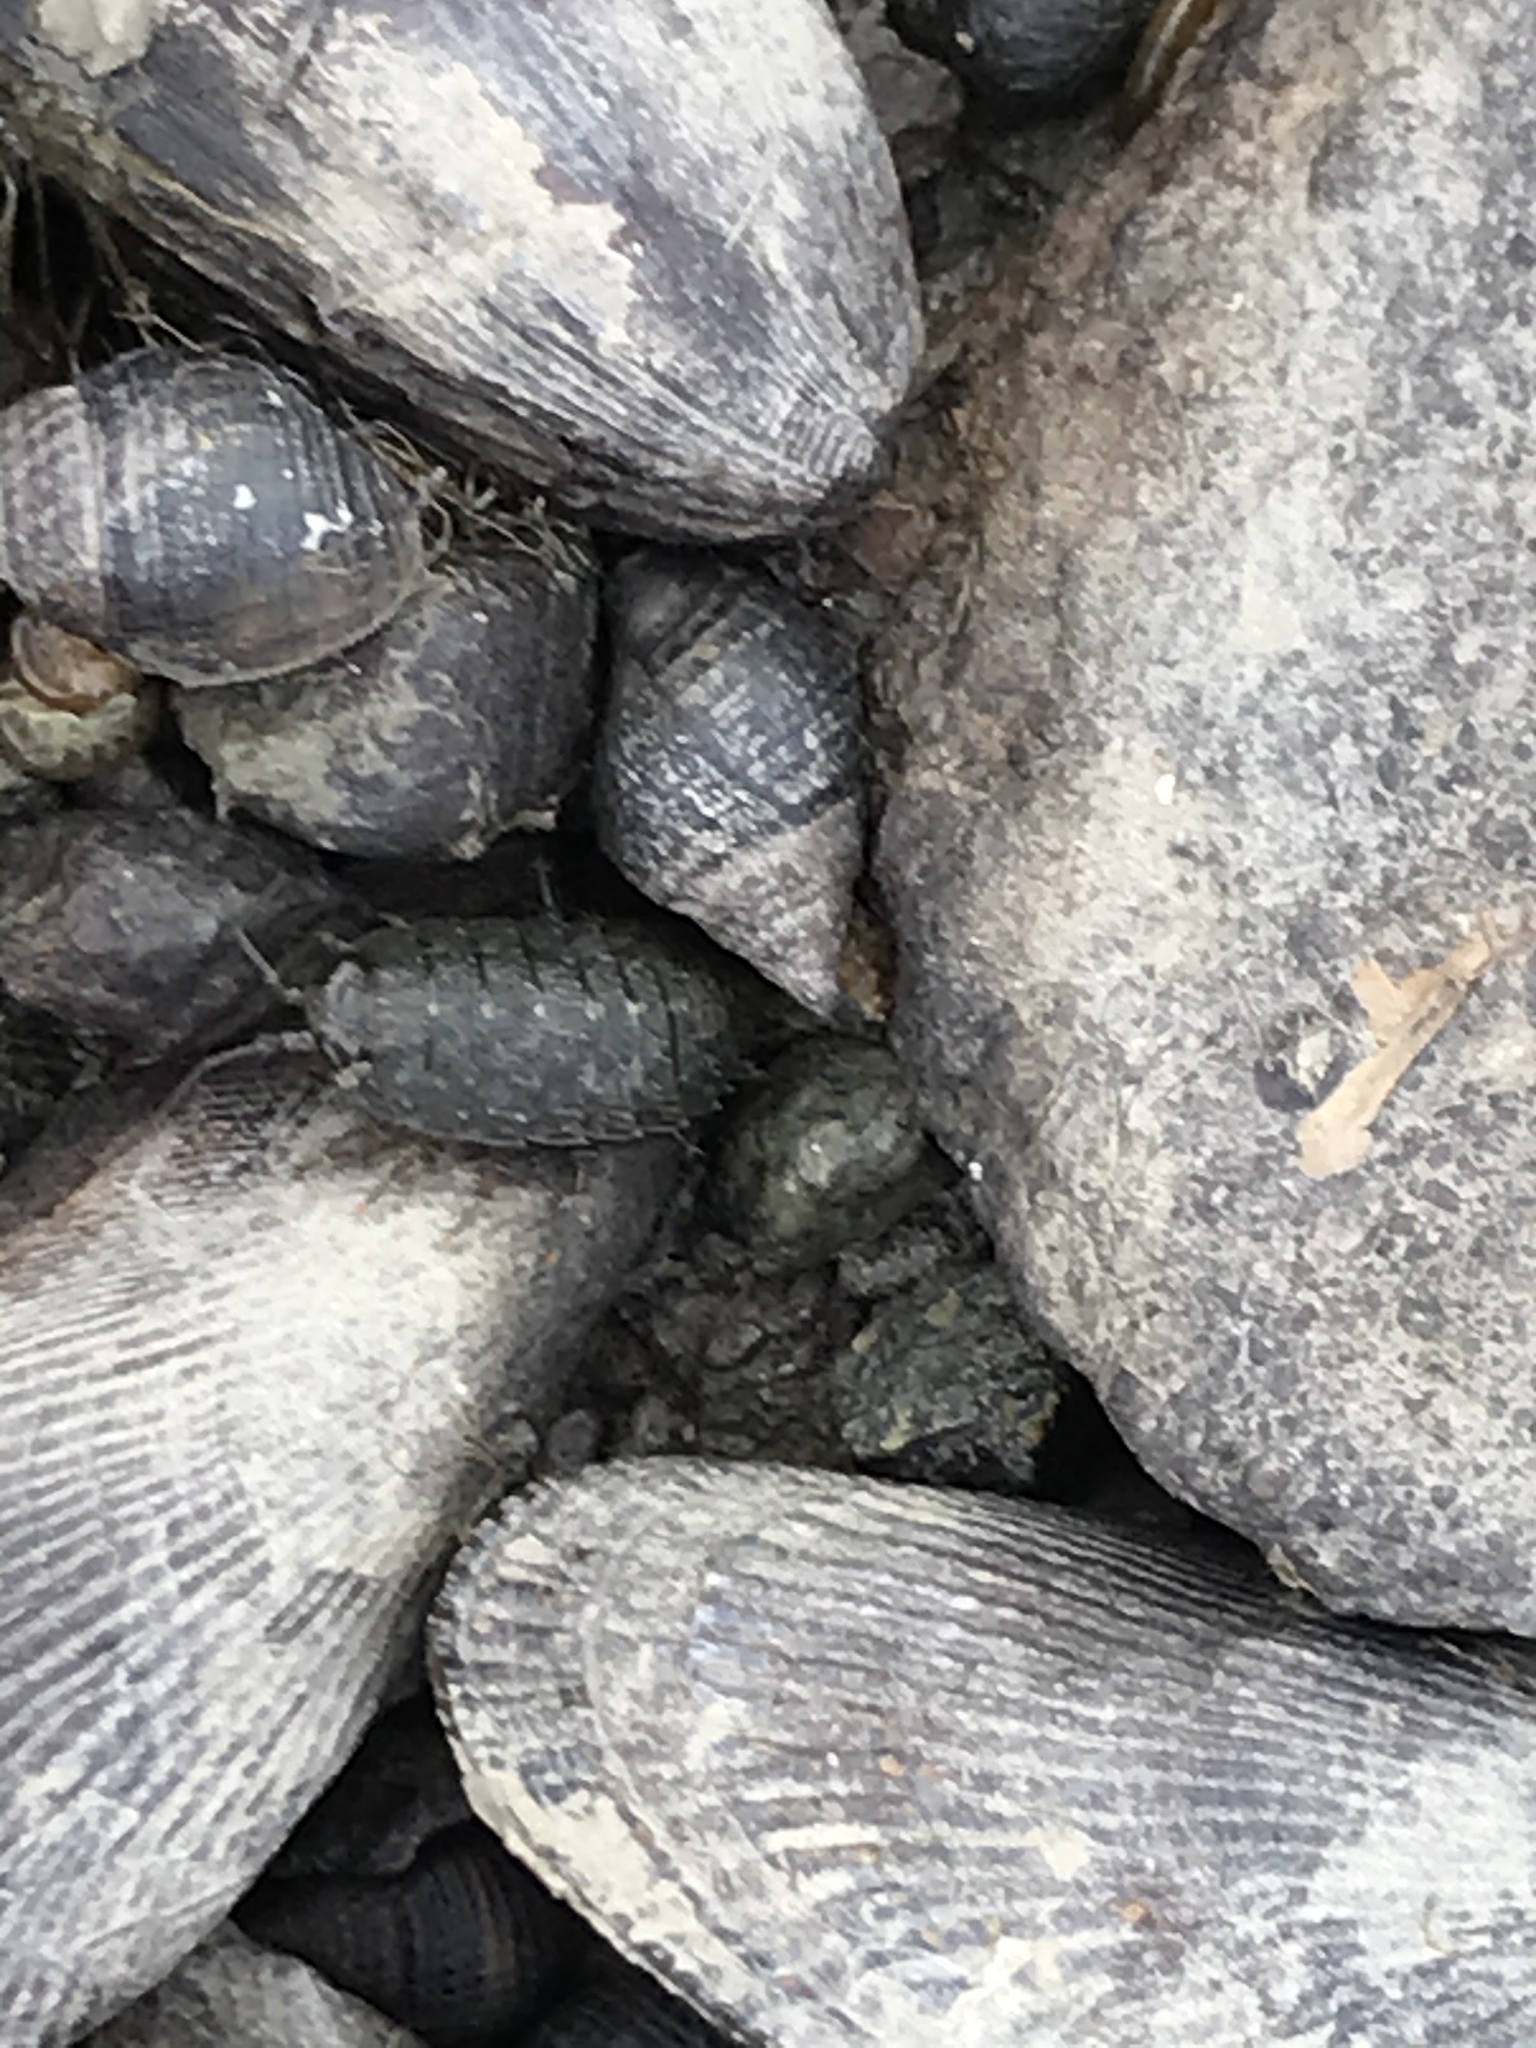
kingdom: Animalia
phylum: Mollusca
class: Gastropoda
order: Neogastropoda
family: Nassariidae
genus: Ilyanassa
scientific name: Ilyanassa obsoleta
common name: Eastern mudsnail
